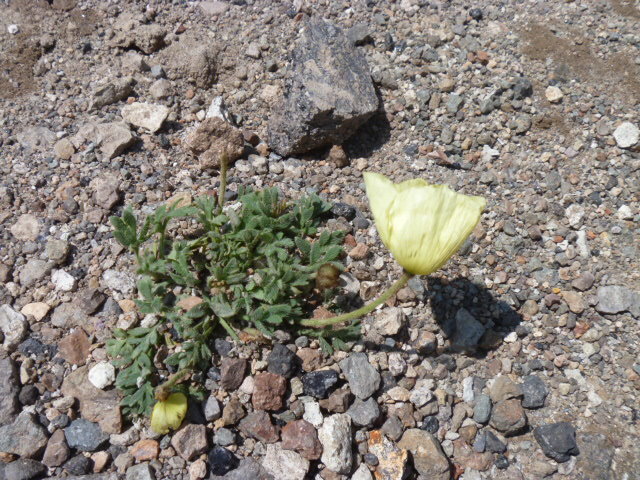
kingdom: Plantae
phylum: Tracheophyta
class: Magnoliopsida
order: Ranunculales
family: Papaveraceae
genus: Papaver
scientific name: Papaver pseudoradicatum
